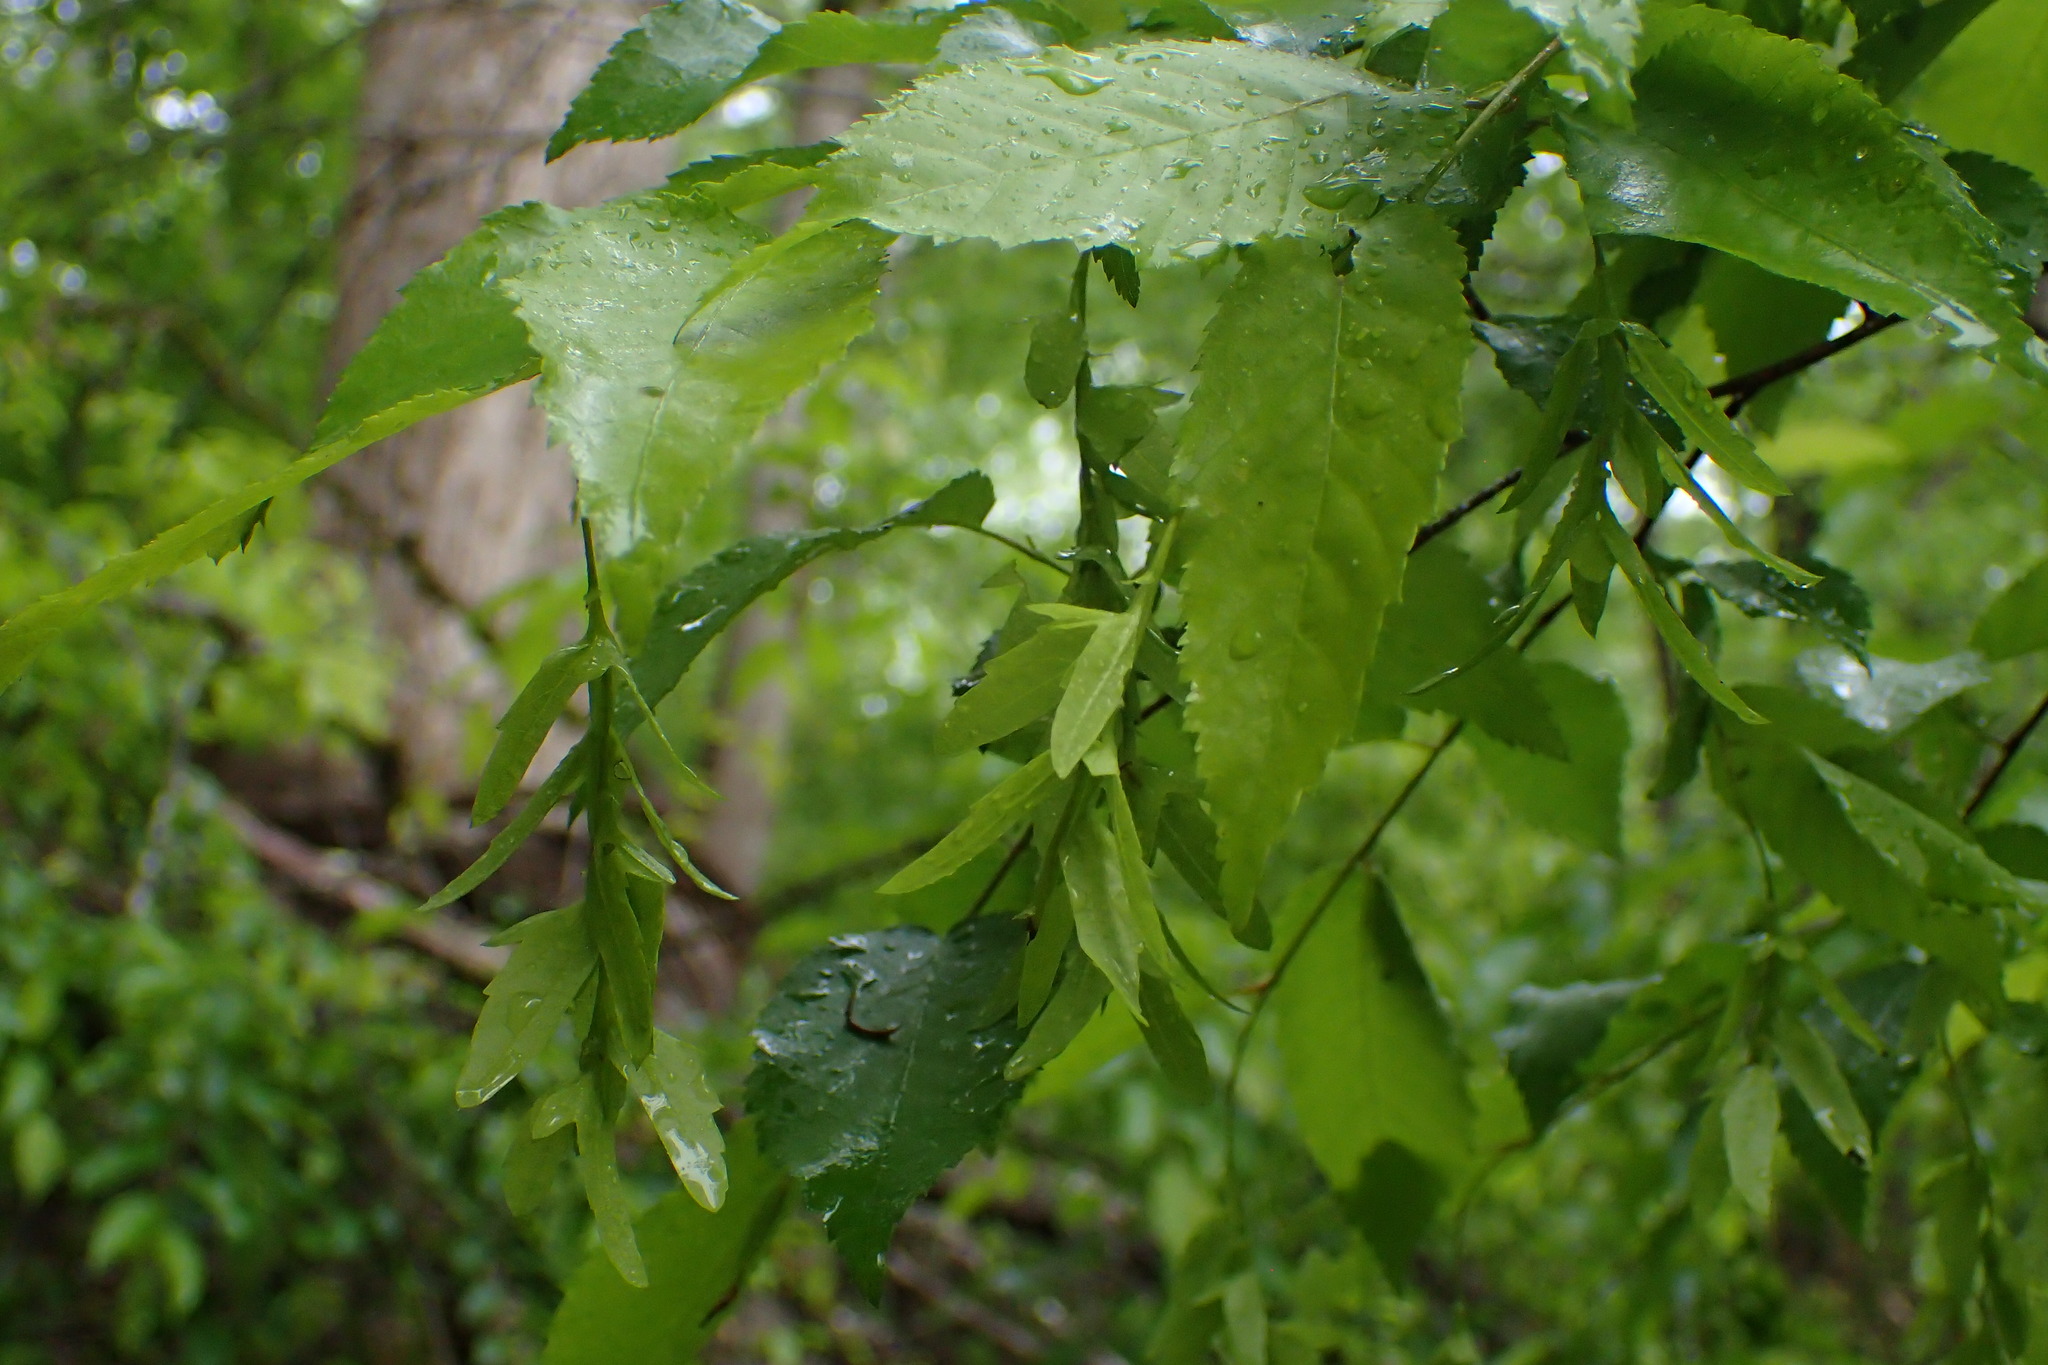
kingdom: Plantae
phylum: Tracheophyta
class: Magnoliopsida
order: Fagales
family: Betulaceae
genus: Carpinus
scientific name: Carpinus caroliniana
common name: American hornbeam
